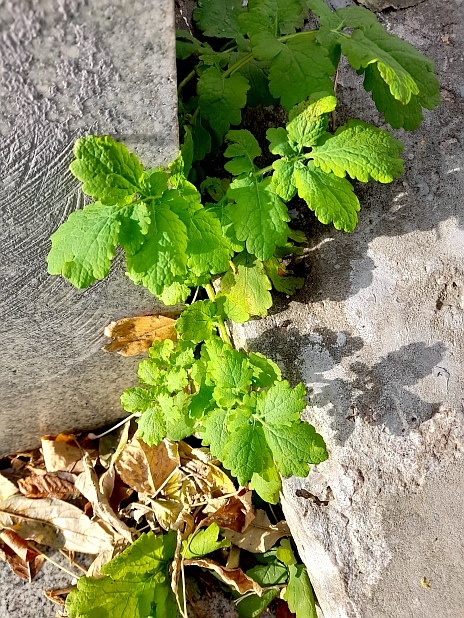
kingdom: Plantae
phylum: Tracheophyta
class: Magnoliopsida
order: Ranunculales
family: Papaveraceae
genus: Chelidonium
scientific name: Chelidonium majus
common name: Greater celandine
